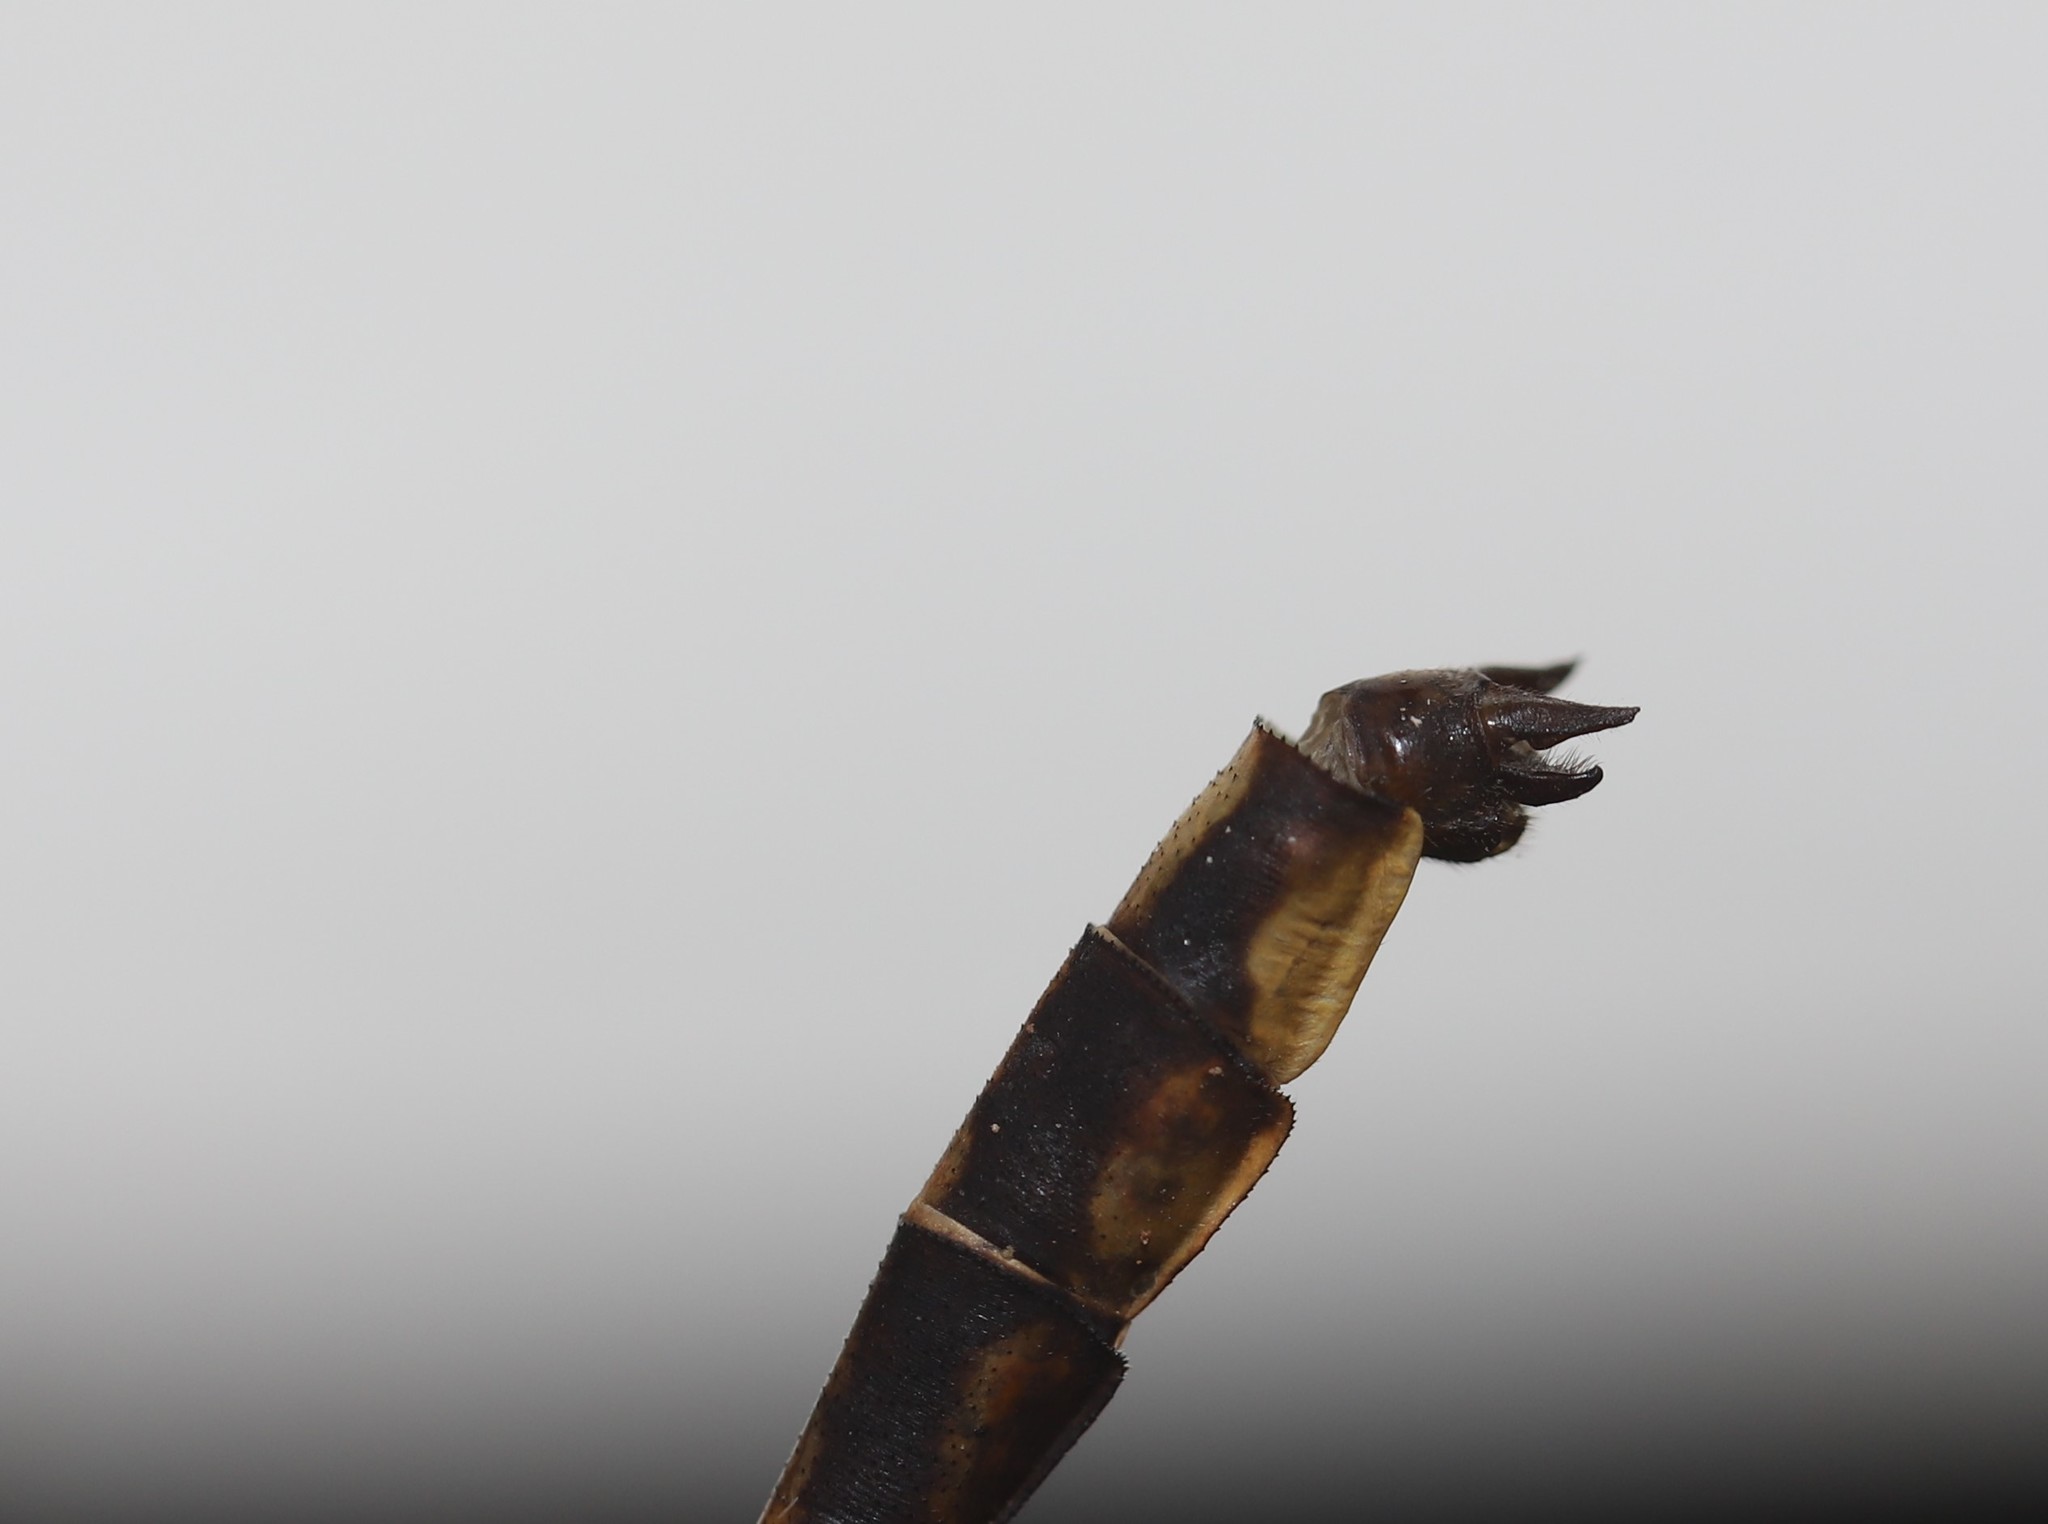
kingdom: Animalia
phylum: Arthropoda
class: Insecta
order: Odonata
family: Gomphidae
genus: Phanogomphus
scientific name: Phanogomphus exilis
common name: Lancet clubtail
